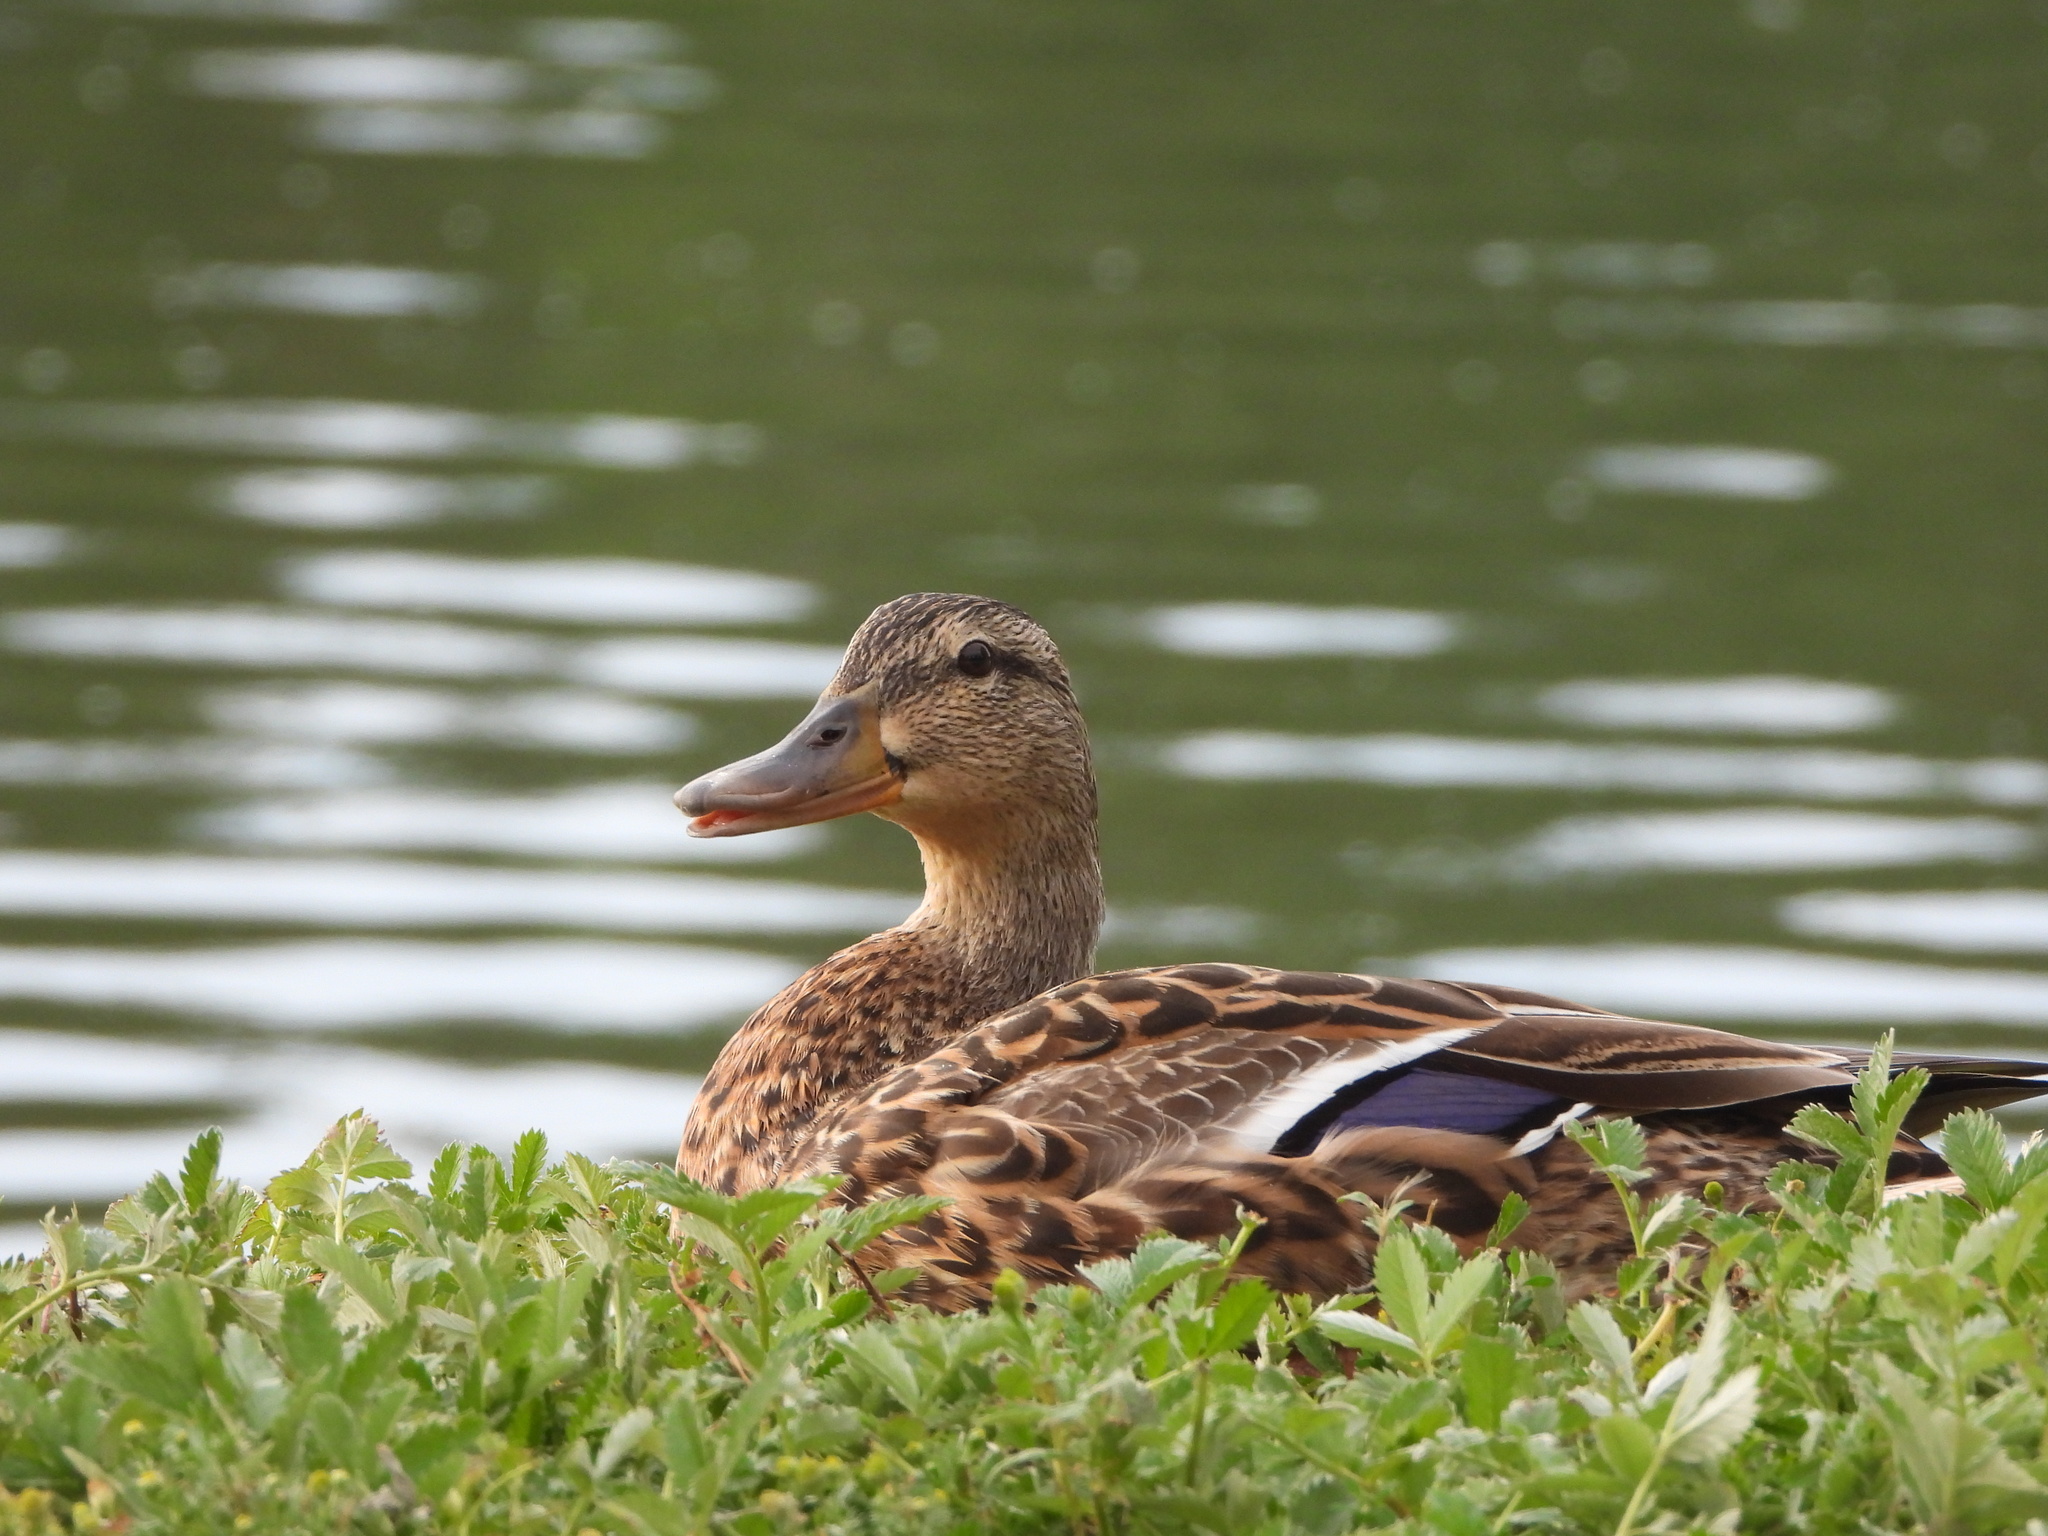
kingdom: Animalia
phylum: Chordata
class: Aves
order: Anseriformes
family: Anatidae
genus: Anas
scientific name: Anas platyrhynchos
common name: Mallard
